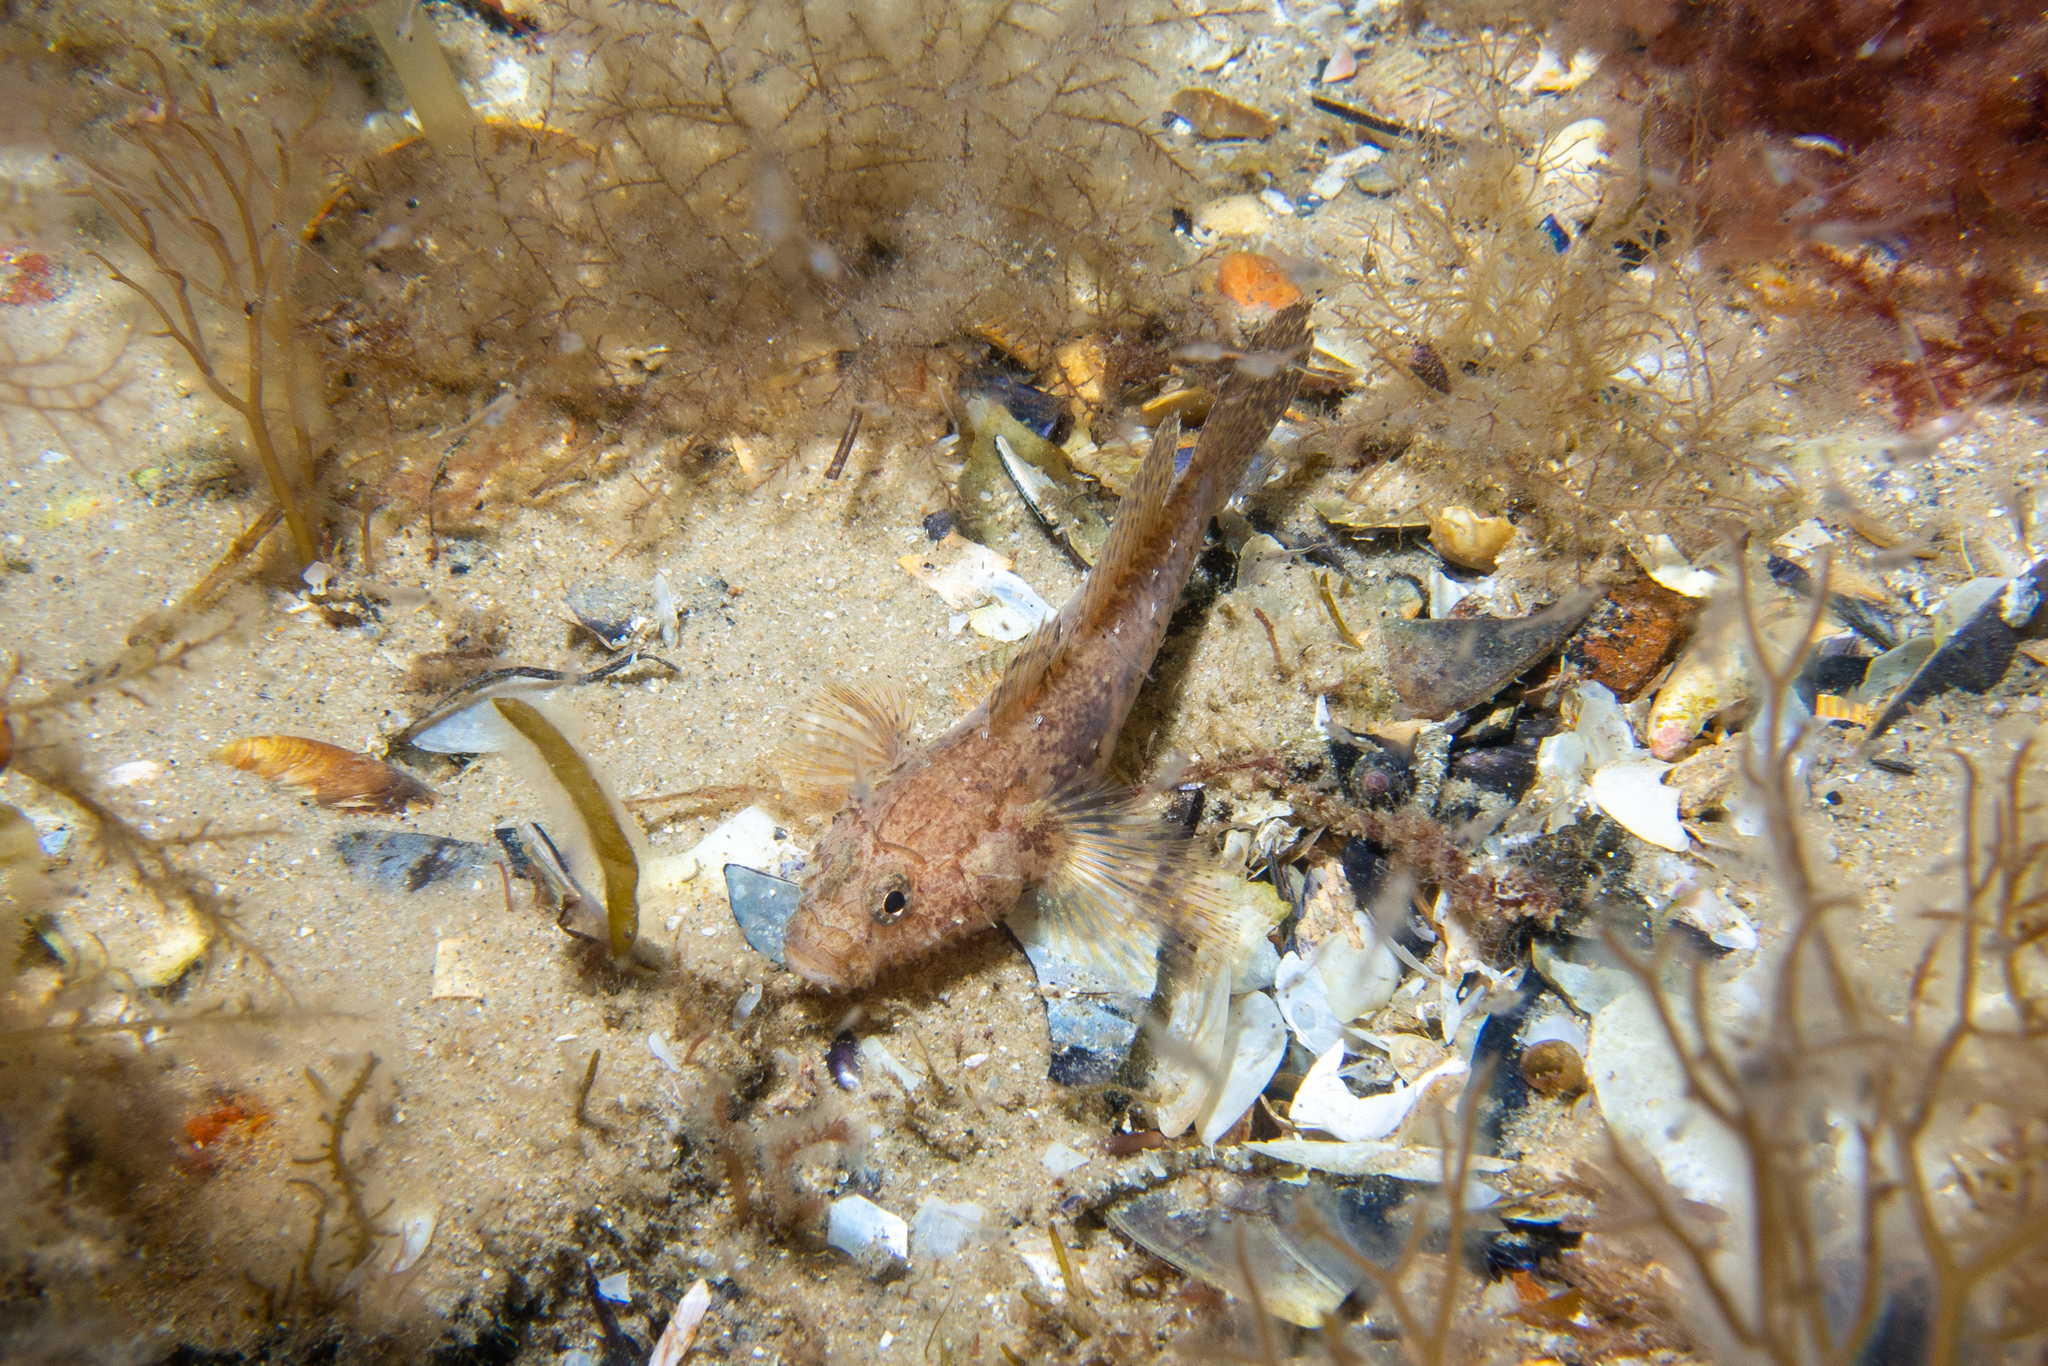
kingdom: Animalia
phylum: Chordata
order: Perciformes
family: Gobiidae
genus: Callogobius
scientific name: Callogobius mucosus
